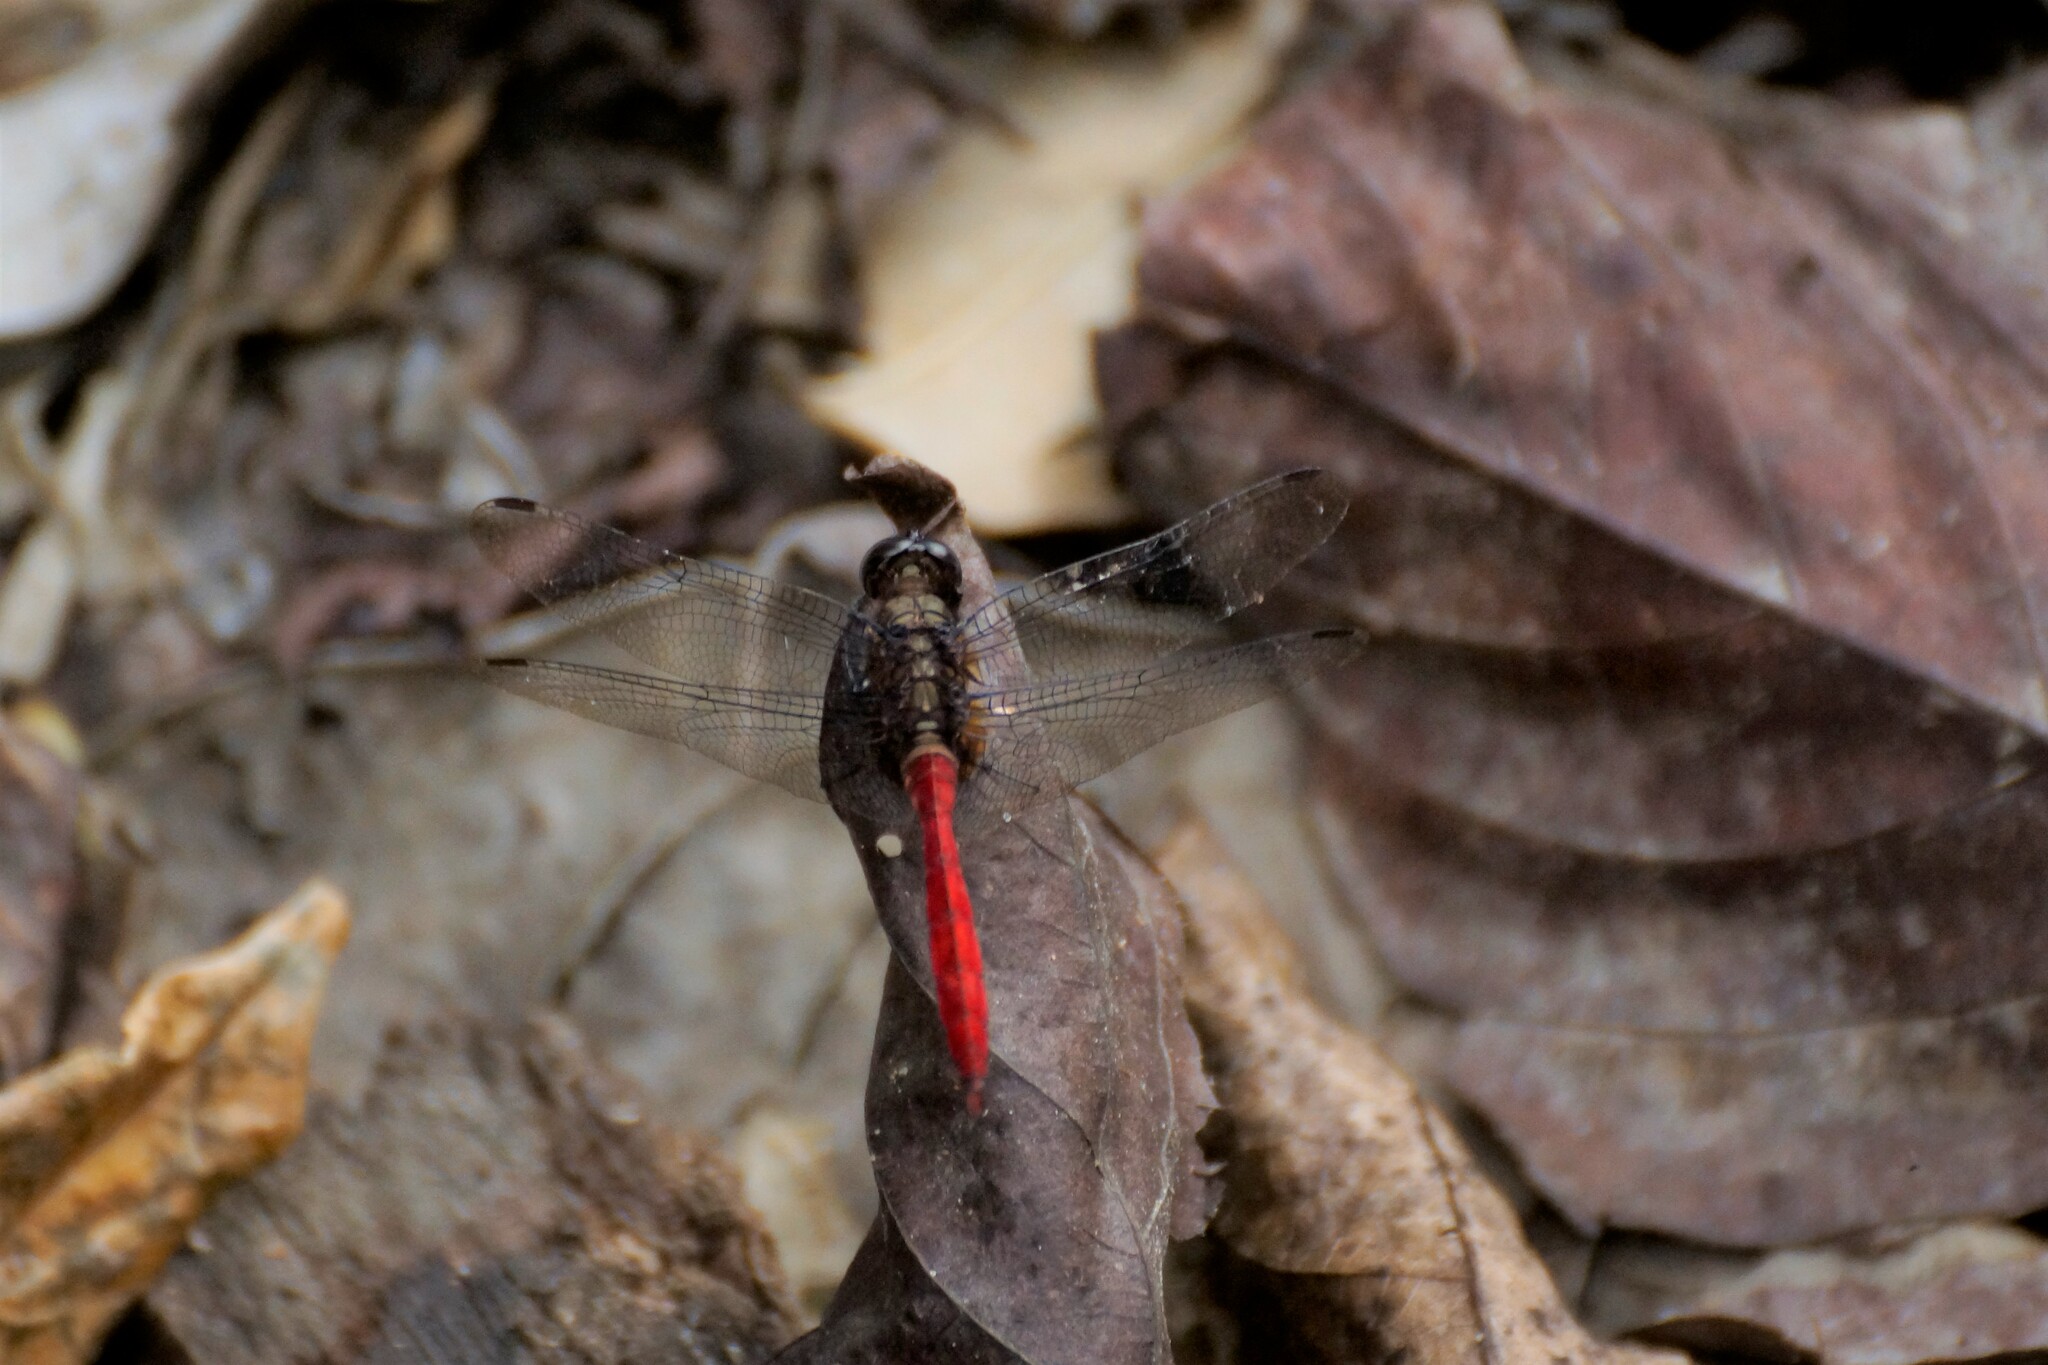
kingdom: Animalia
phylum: Arthropoda
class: Insecta
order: Odonata
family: Libellulidae
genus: Orthetrum
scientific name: Orthetrum villosovittatum
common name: Firery skimmer
